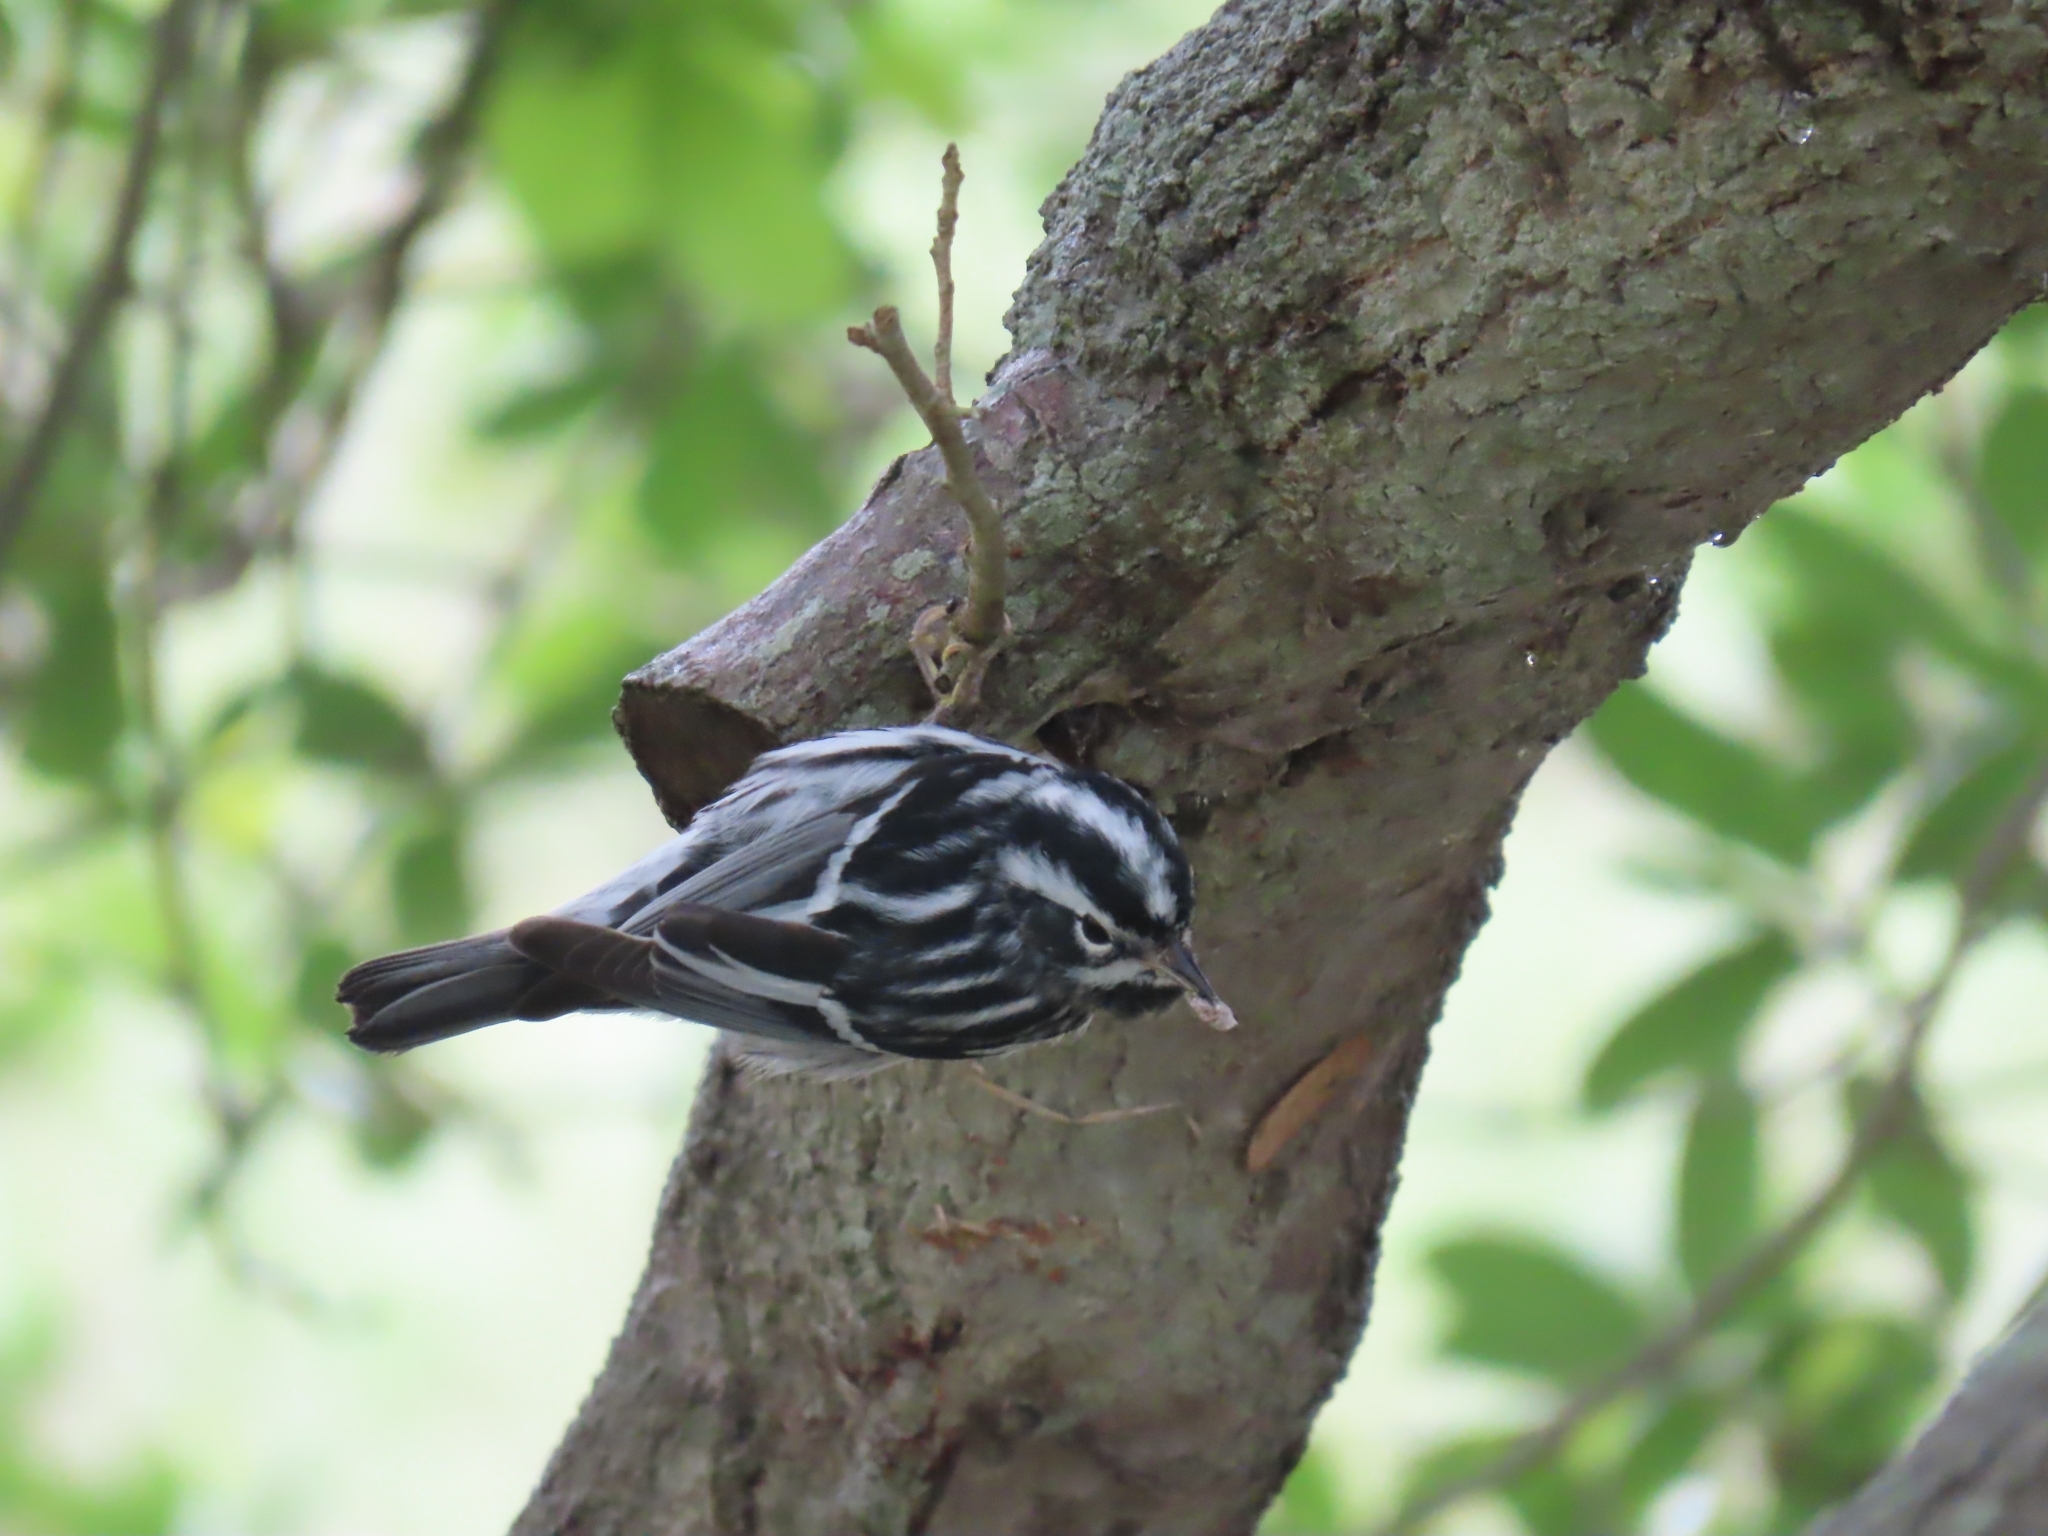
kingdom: Animalia
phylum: Chordata
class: Aves
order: Passeriformes
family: Parulidae
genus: Mniotilta
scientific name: Mniotilta varia
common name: Black-and-white warbler
